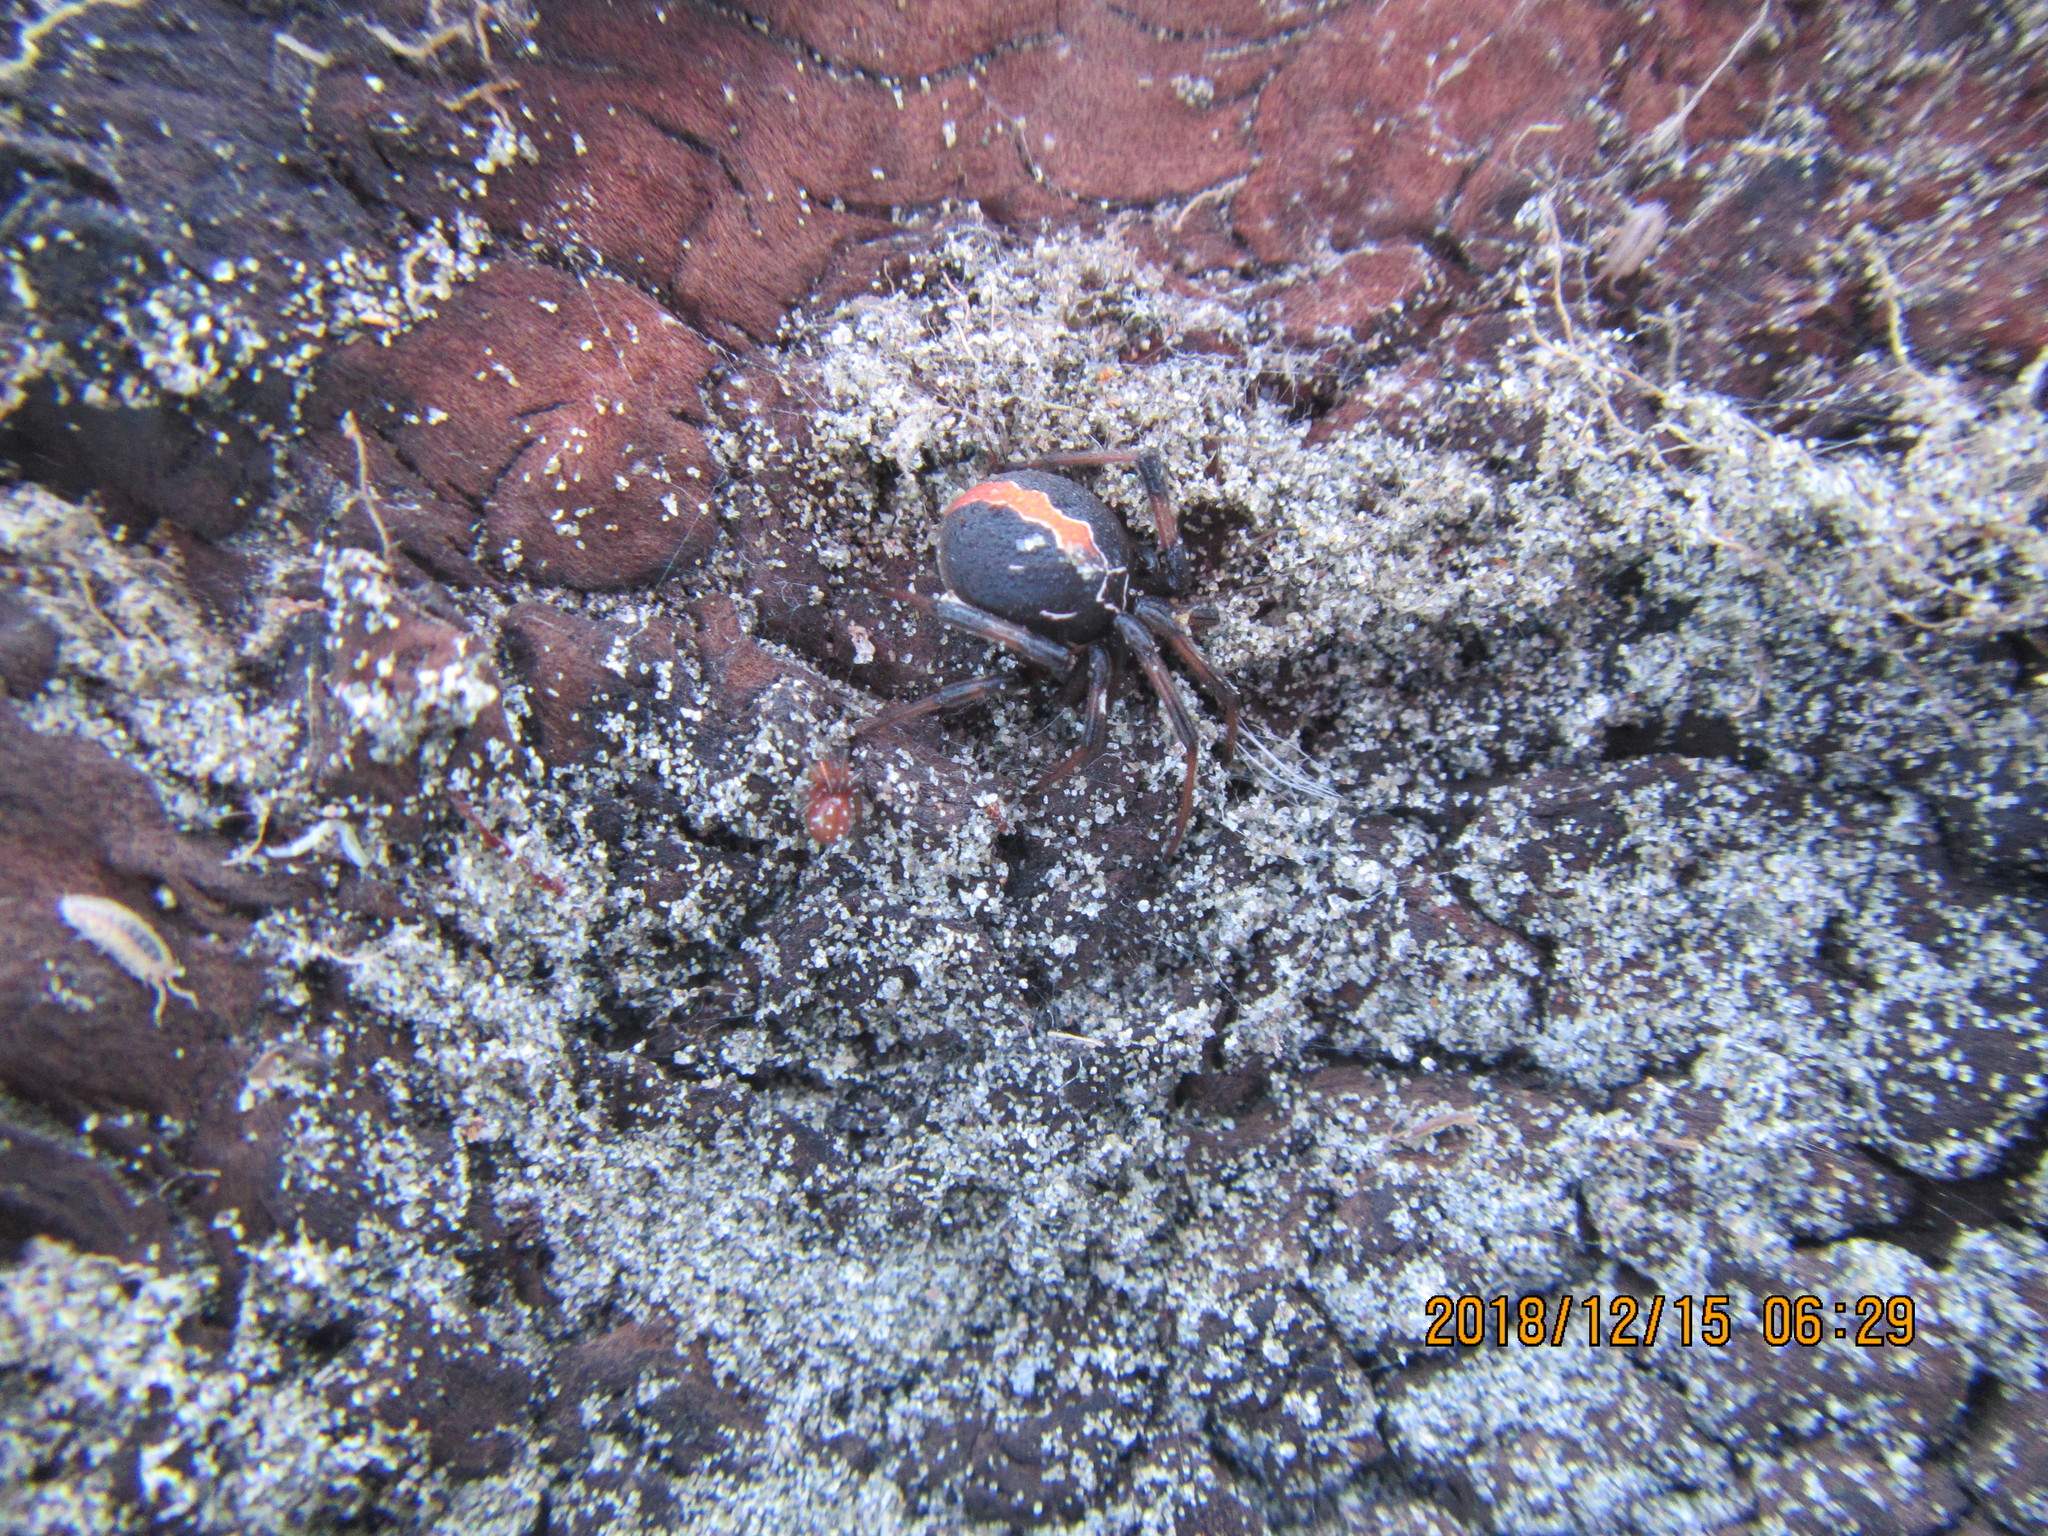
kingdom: Animalia
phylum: Arthropoda
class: Arachnida
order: Araneae
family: Theridiidae
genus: Latrodectus
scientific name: Latrodectus katipo
